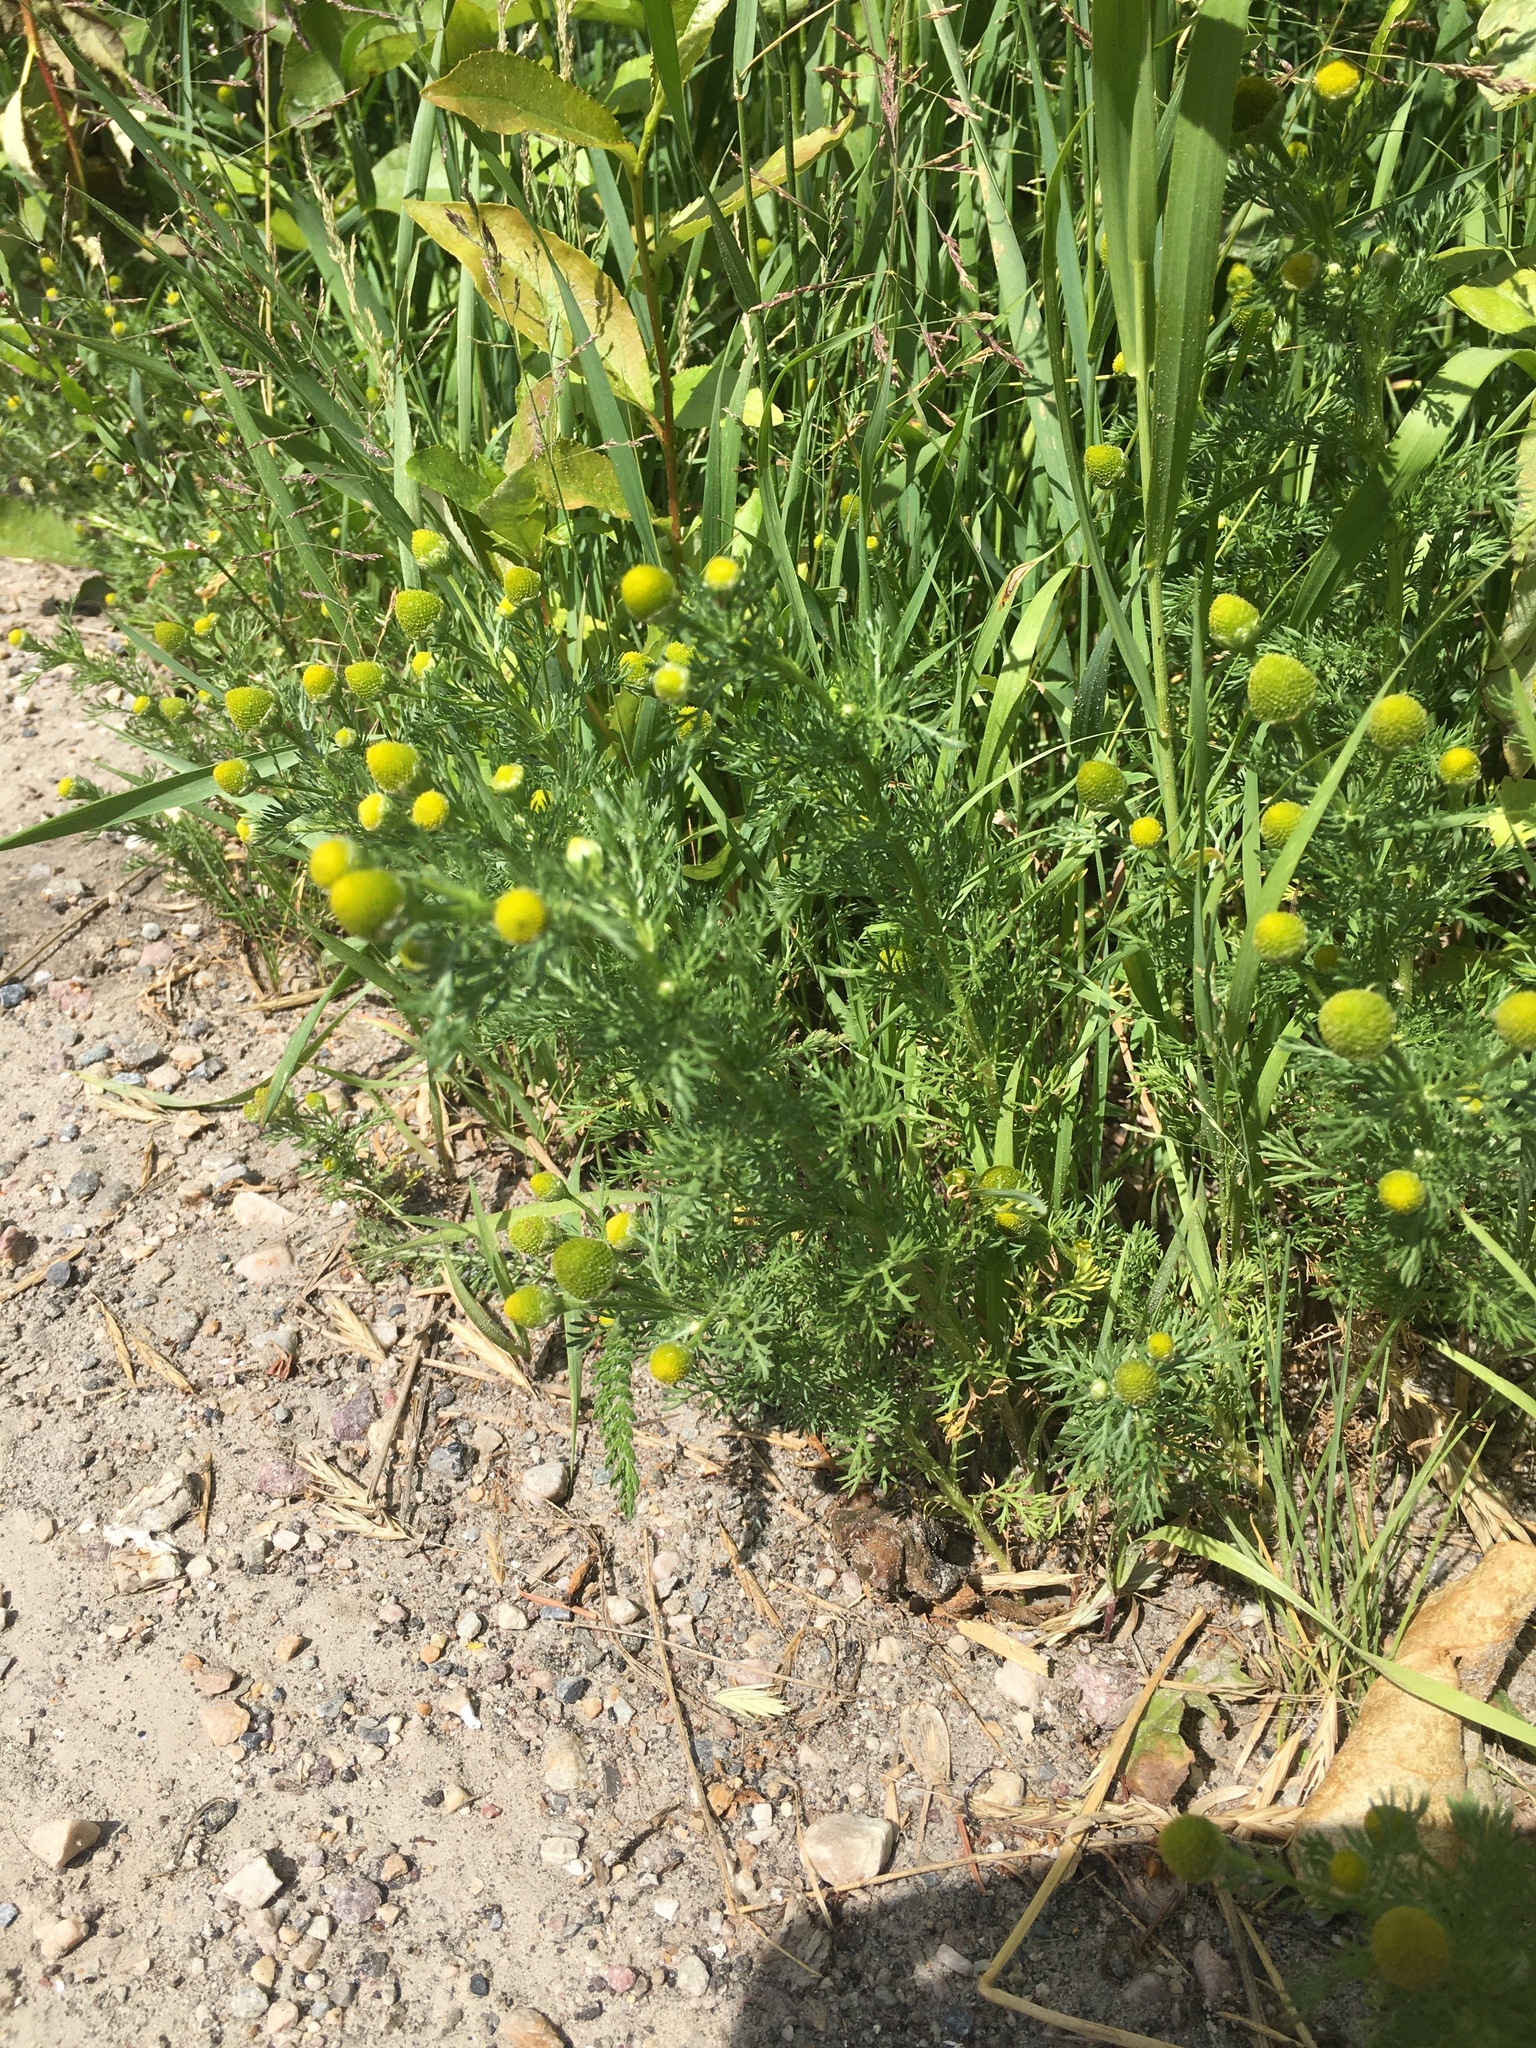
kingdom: Plantae
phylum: Tracheophyta
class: Magnoliopsida
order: Asterales
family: Asteraceae
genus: Matricaria
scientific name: Matricaria discoidea
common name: Disc mayweed
